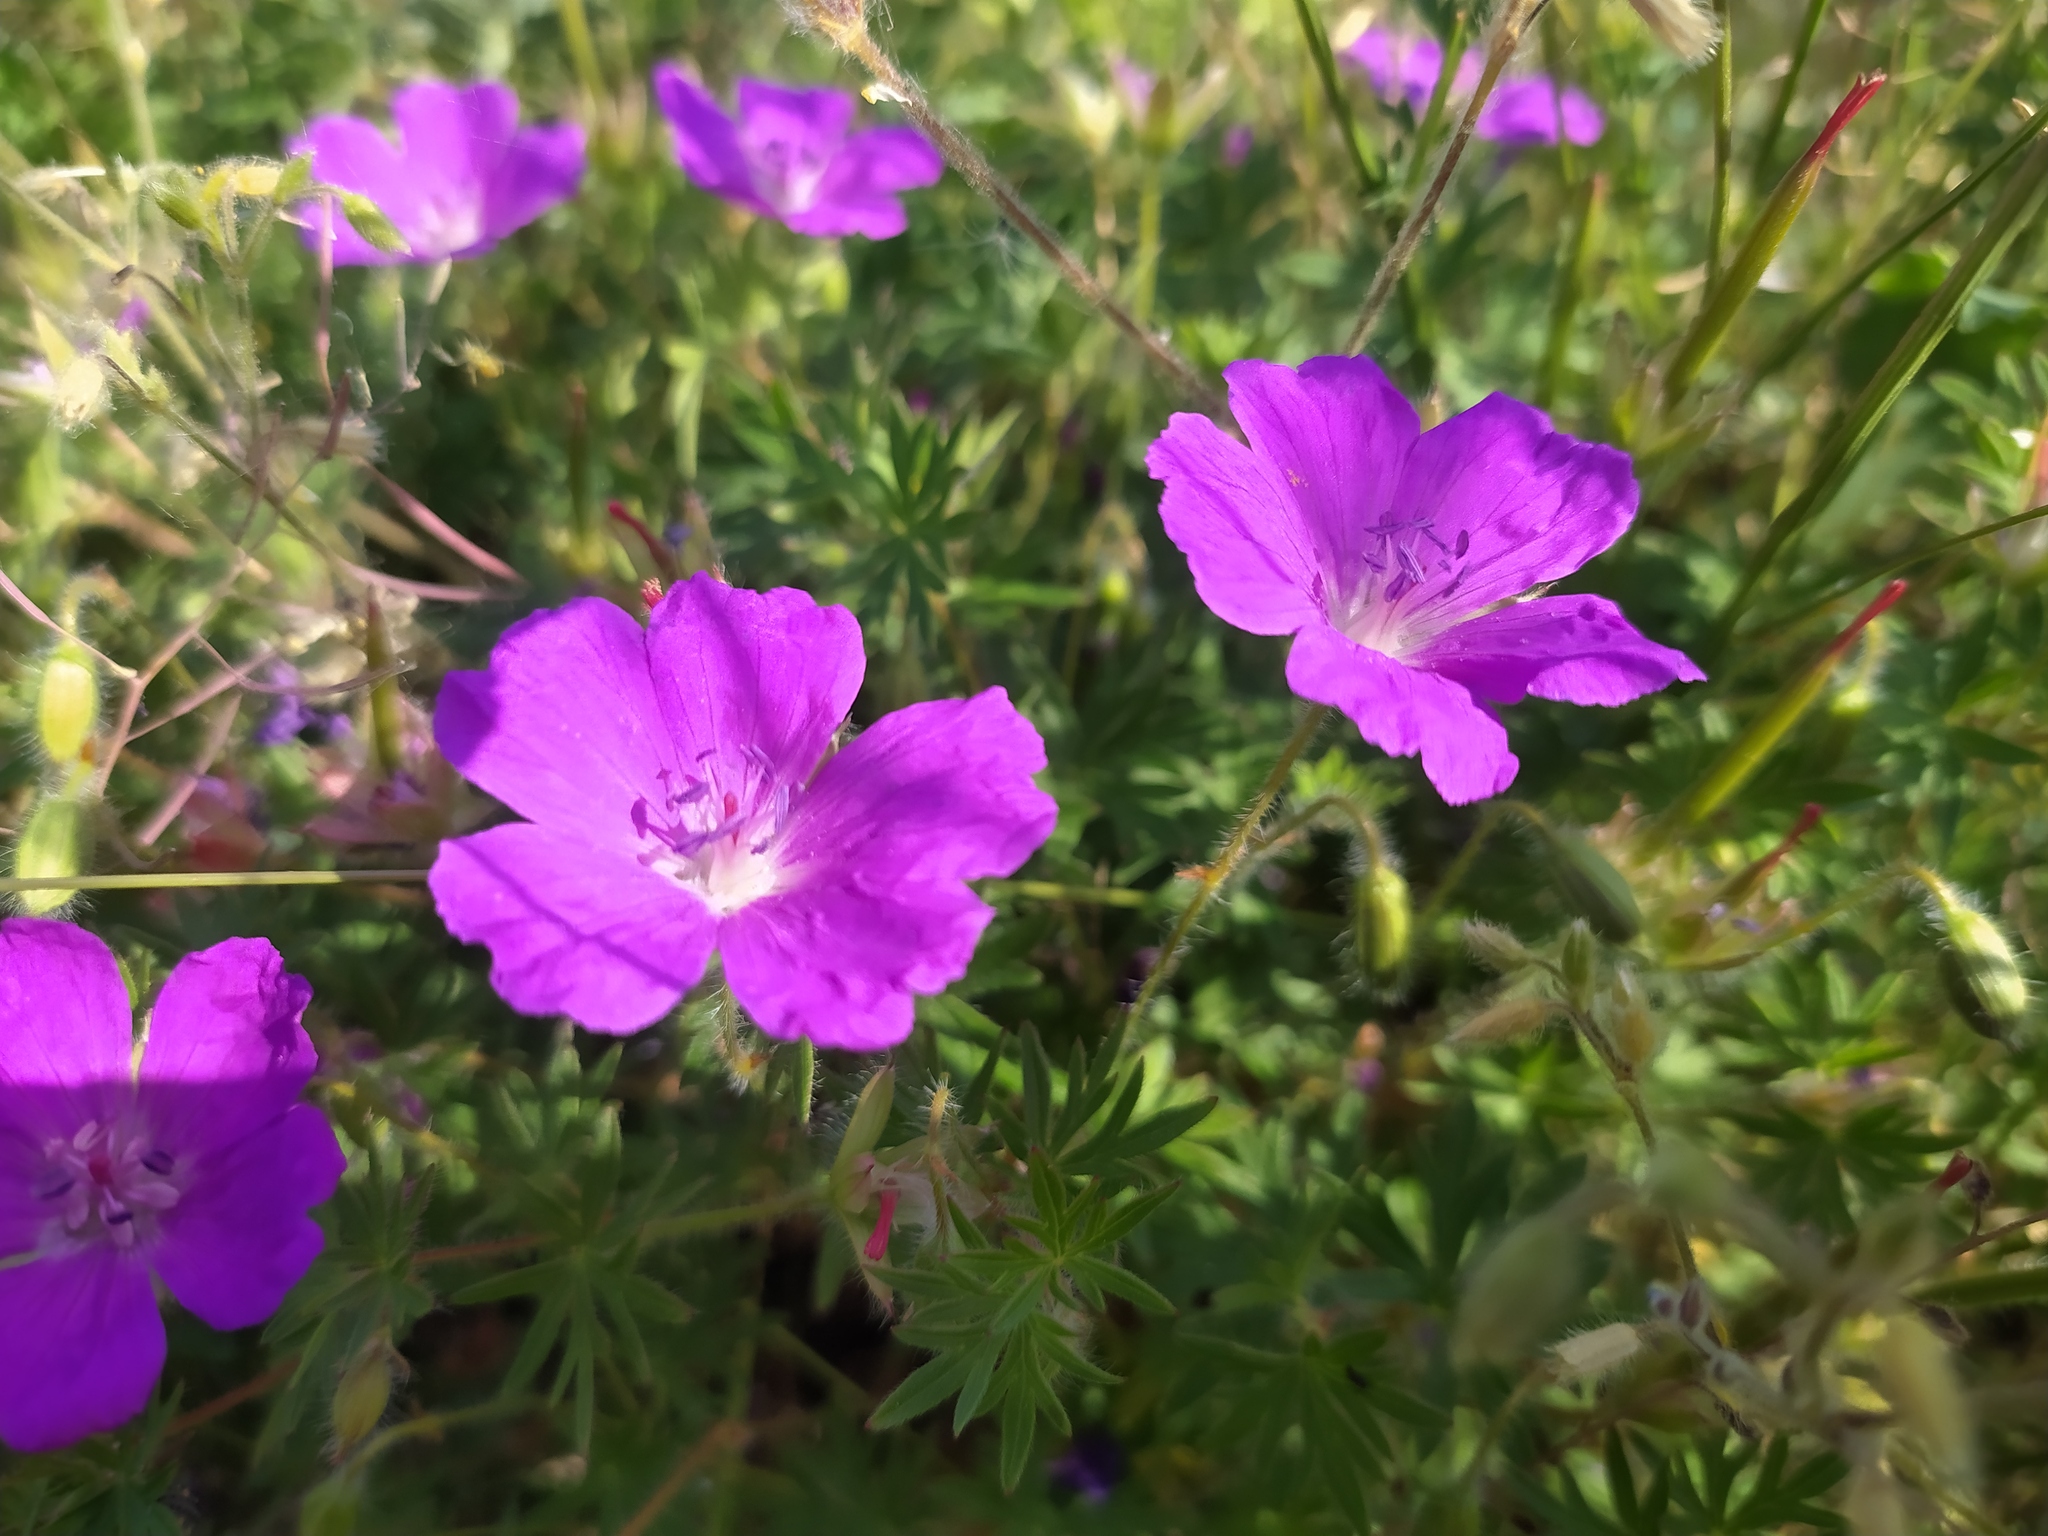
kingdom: Plantae
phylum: Tracheophyta
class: Magnoliopsida
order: Geraniales
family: Geraniaceae
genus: Geranium
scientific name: Geranium sanguineum
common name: Bloody crane's-bill
